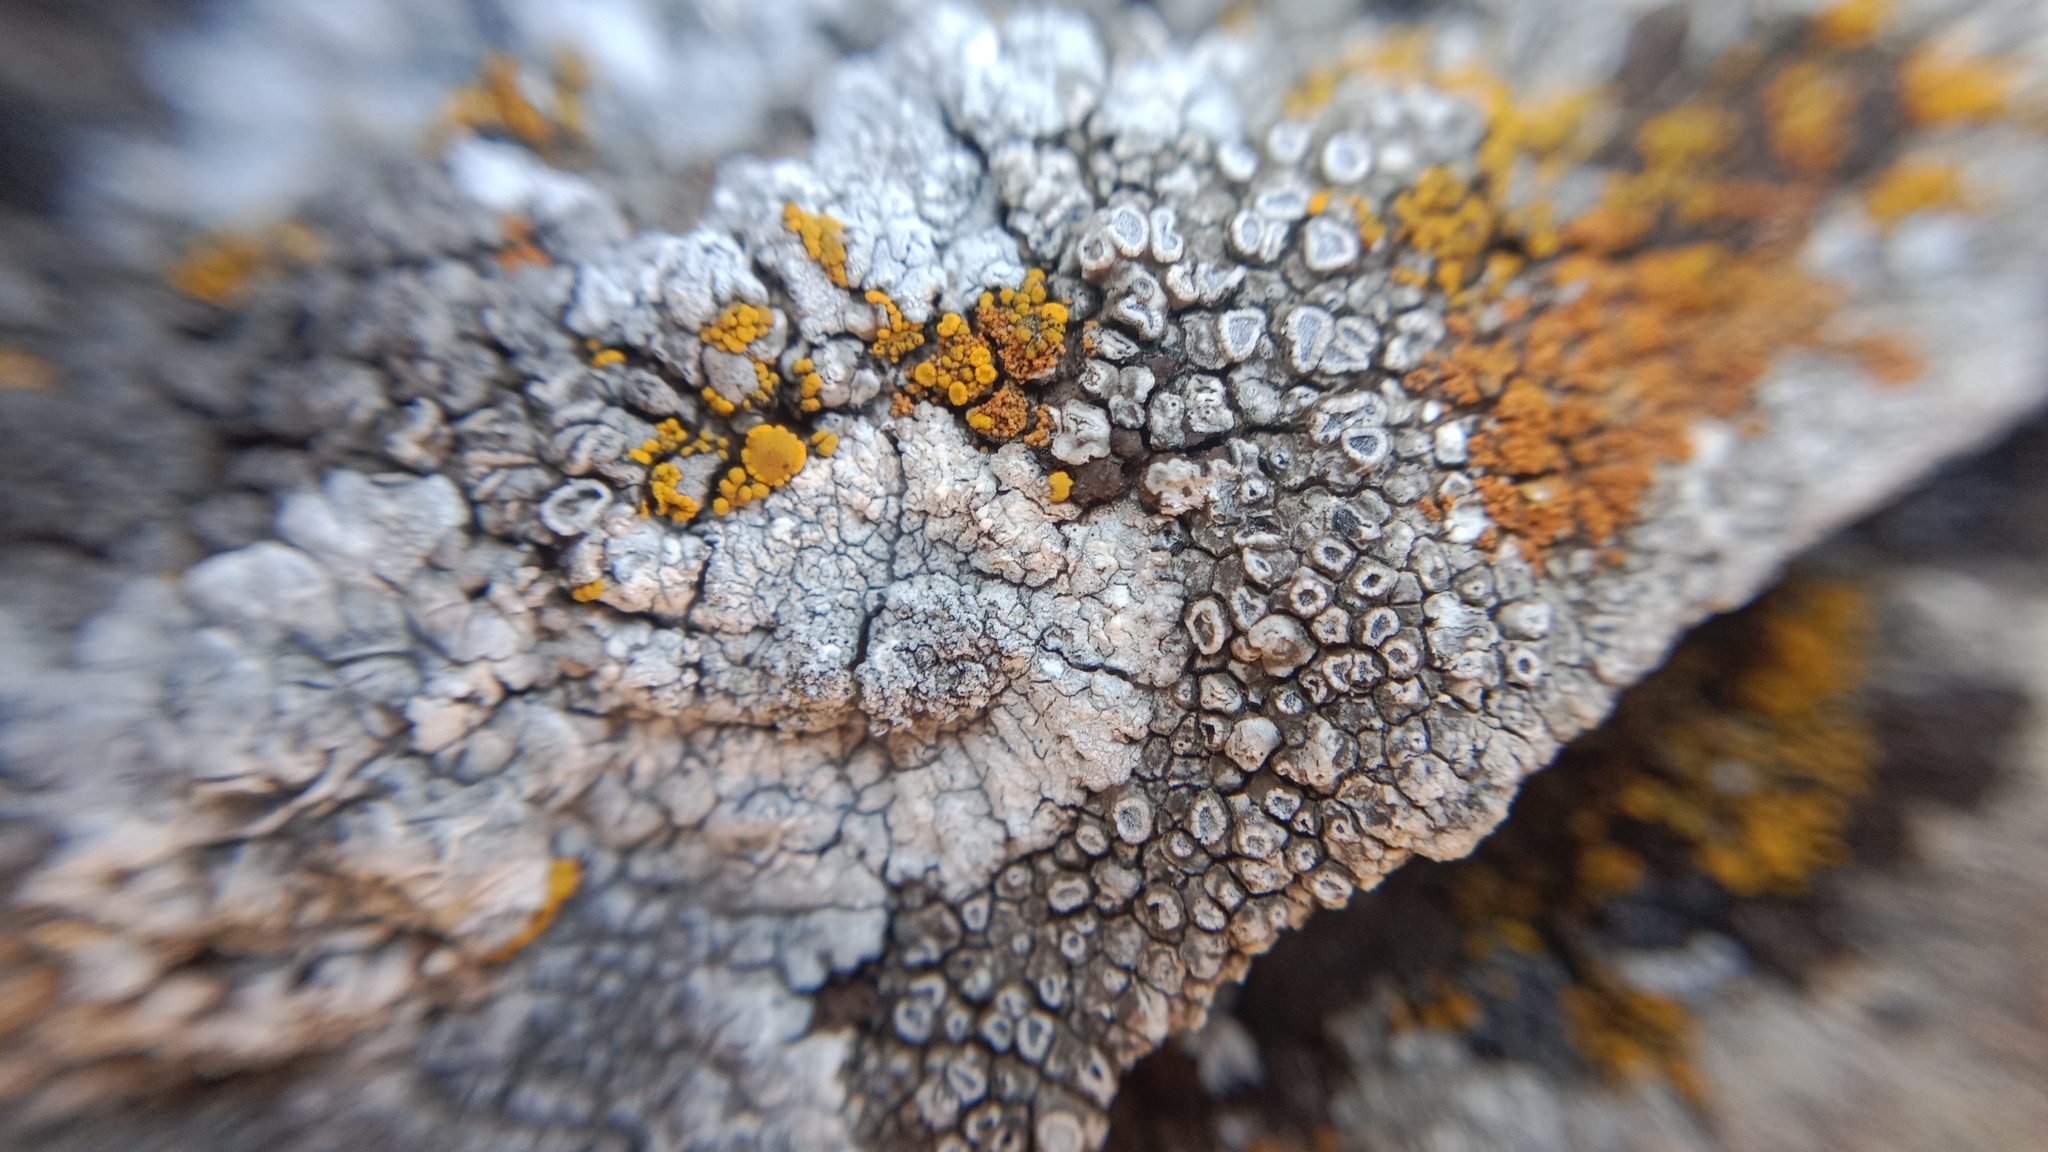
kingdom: Fungi
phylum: Ascomycota
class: Lecanoromycetes
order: Pertusariales
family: Megasporaceae
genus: Circinaria
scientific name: Circinaria hoffmanniana
